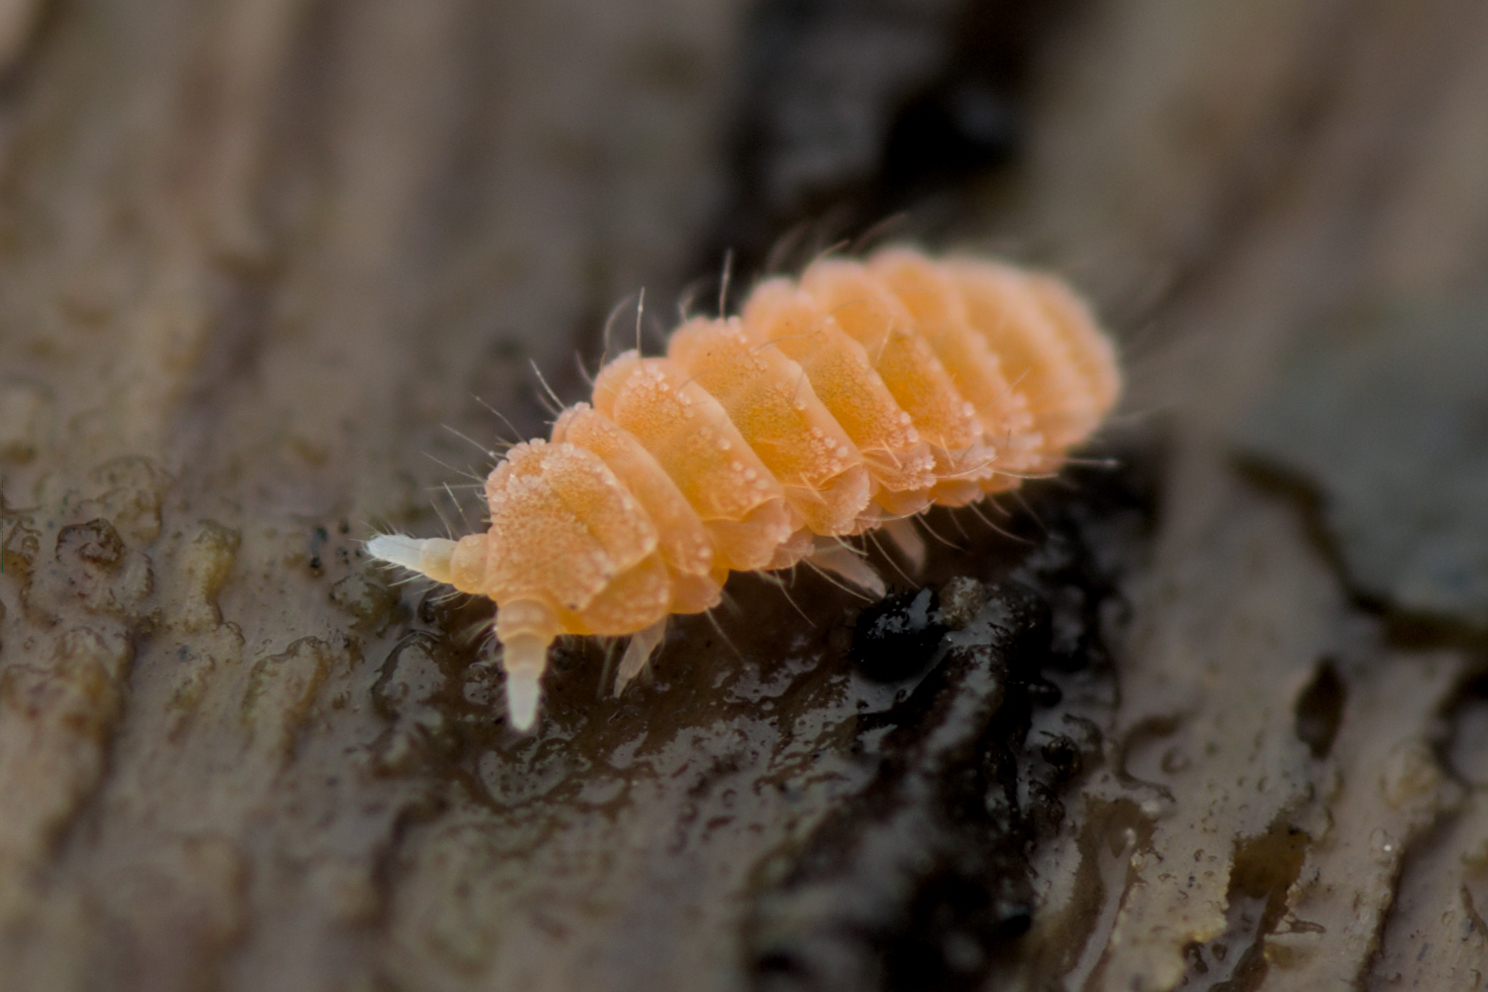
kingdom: Animalia
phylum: Arthropoda
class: Collembola
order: Poduromorpha
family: Neanuridae
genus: Monobella
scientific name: Monobella grassei
